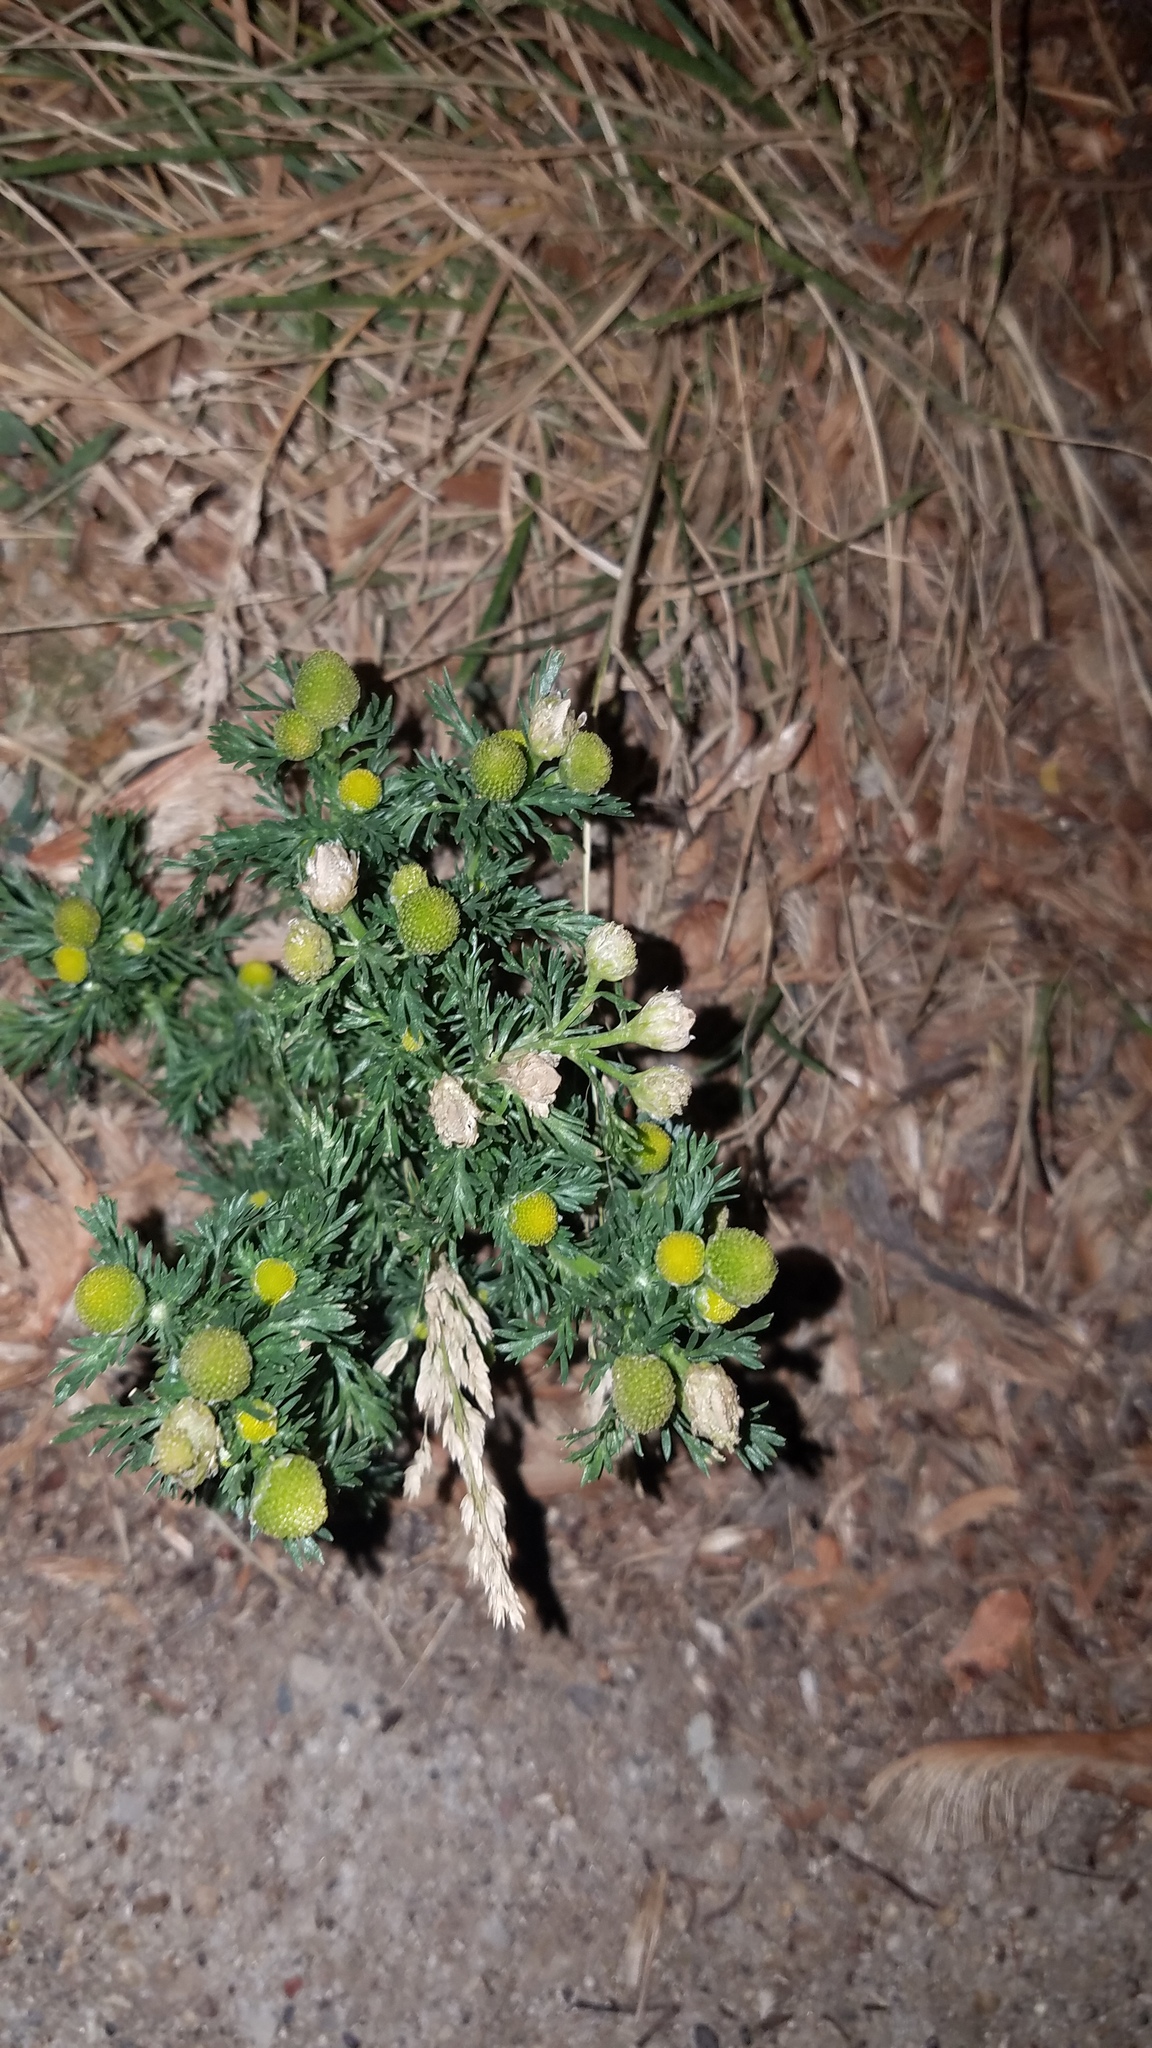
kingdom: Plantae
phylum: Tracheophyta
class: Magnoliopsida
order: Asterales
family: Asteraceae
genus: Matricaria
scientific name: Matricaria discoidea
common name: Disc mayweed
